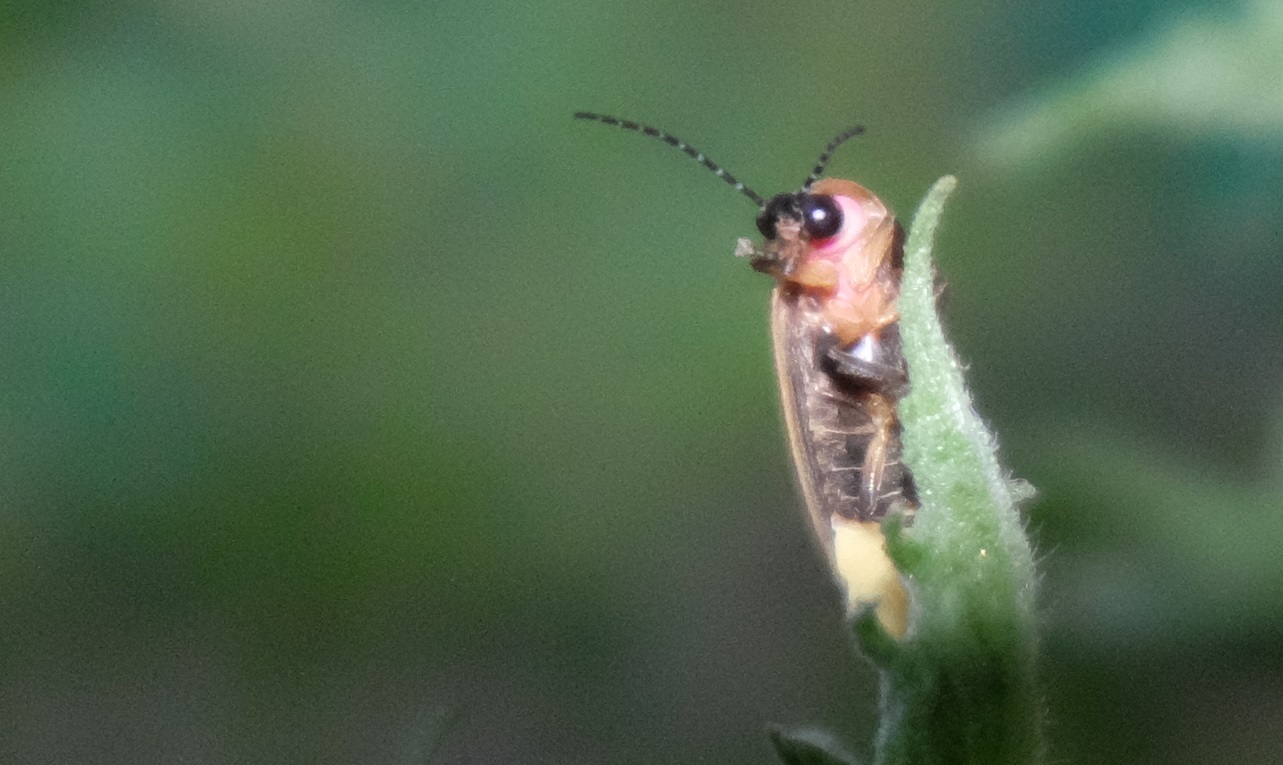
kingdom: Animalia
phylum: Arthropoda
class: Insecta
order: Coleoptera
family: Lampyridae
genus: Photinus
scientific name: Photinus pyralis
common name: Big dipper firefly
